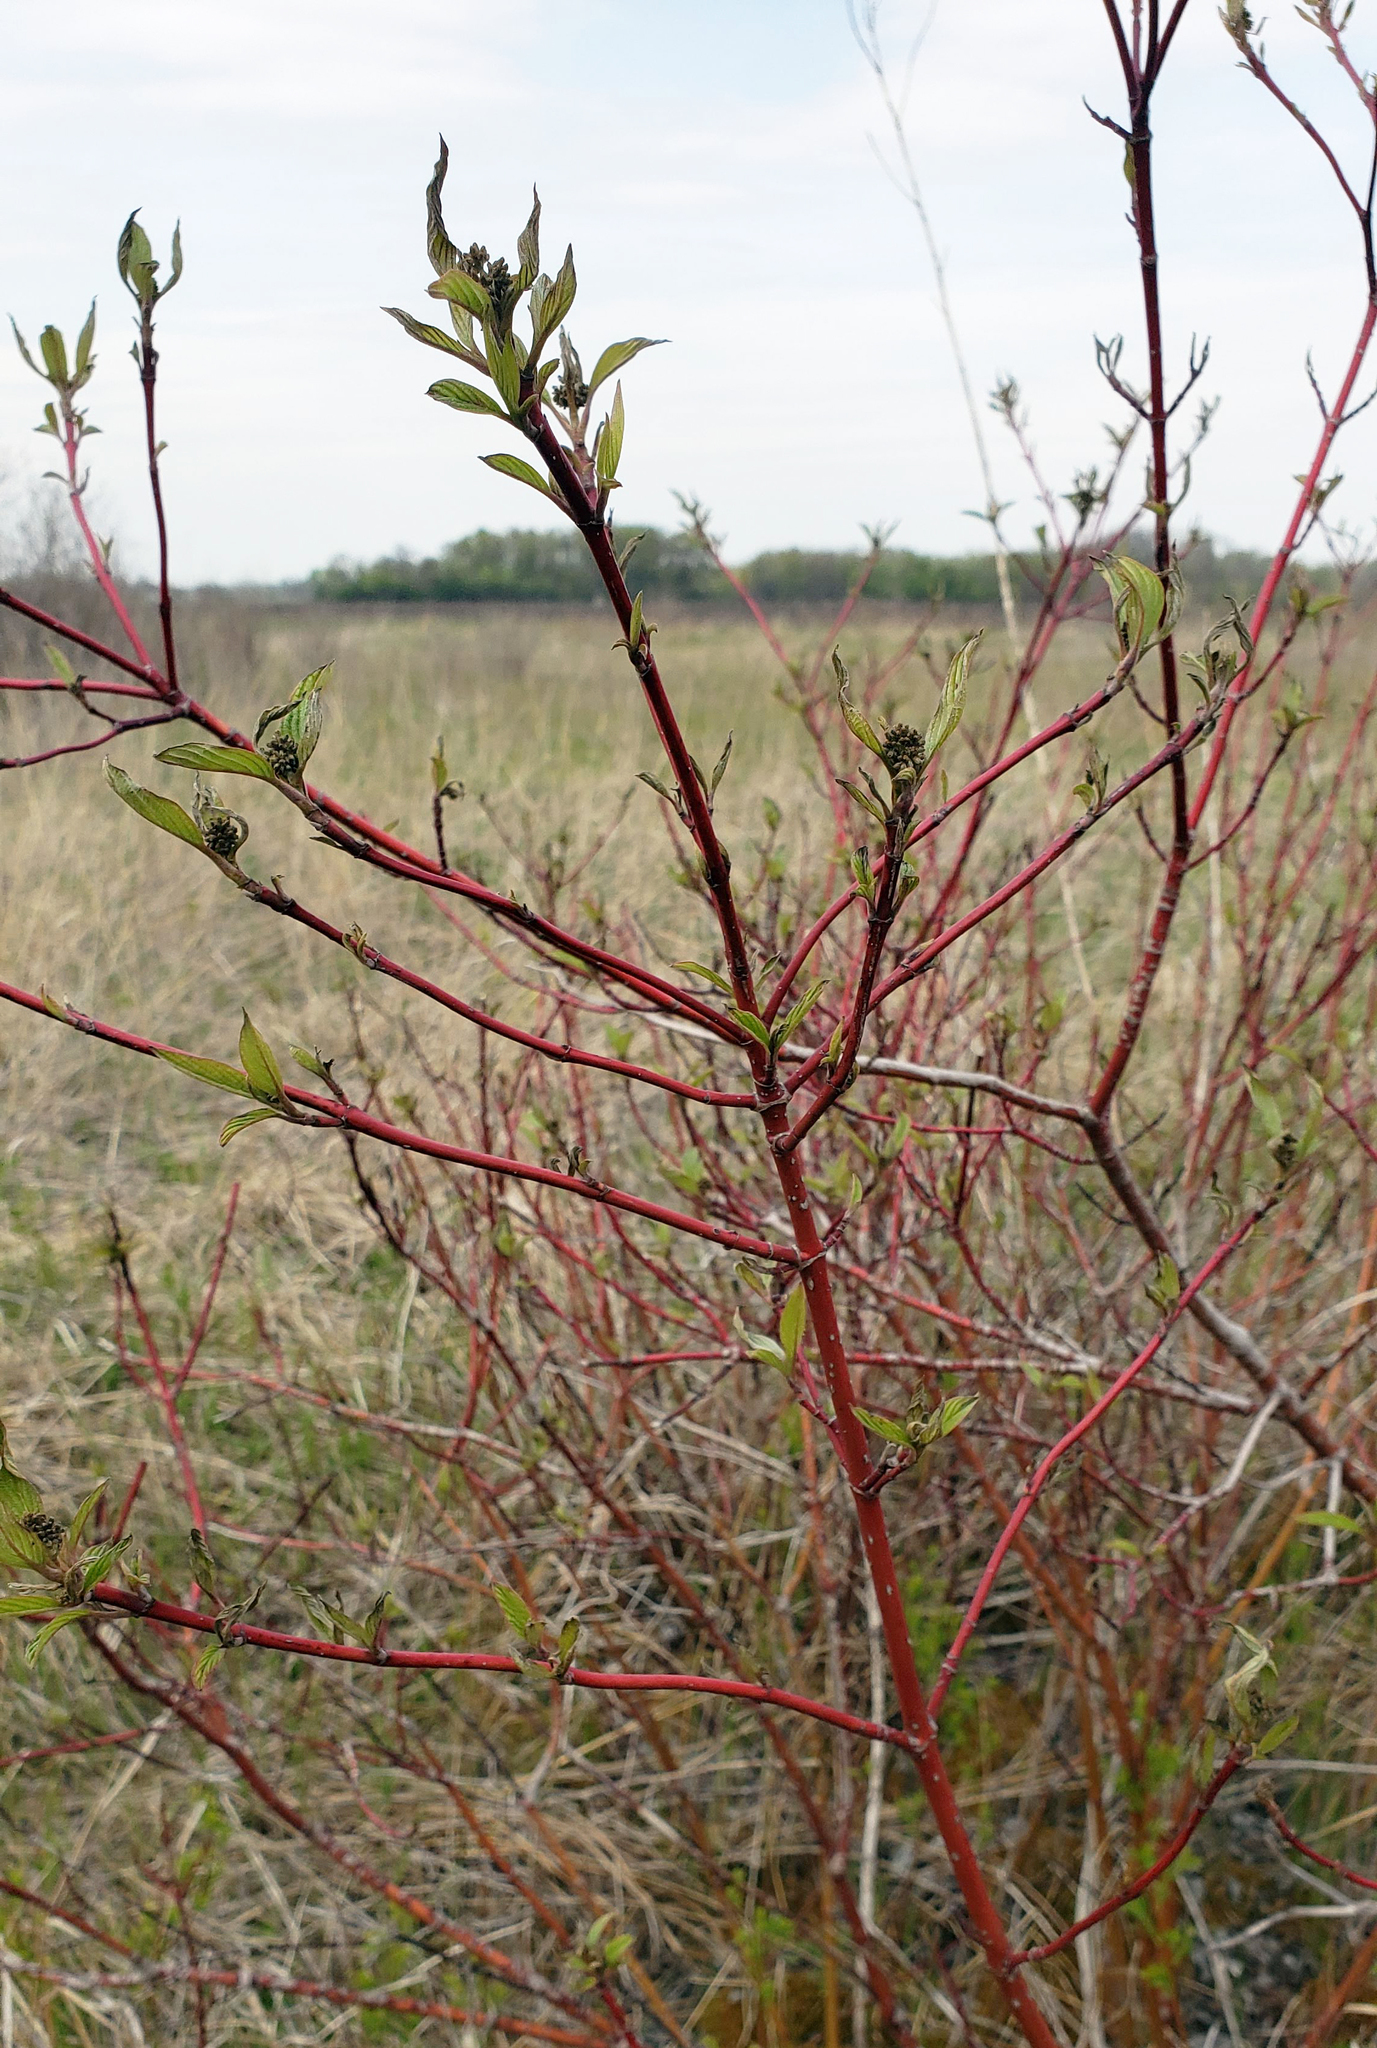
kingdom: Plantae
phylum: Tracheophyta
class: Magnoliopsida
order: Cornales
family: Cornaceae
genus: Cornus
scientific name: Cornus sericea
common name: Red-osier dogwood
